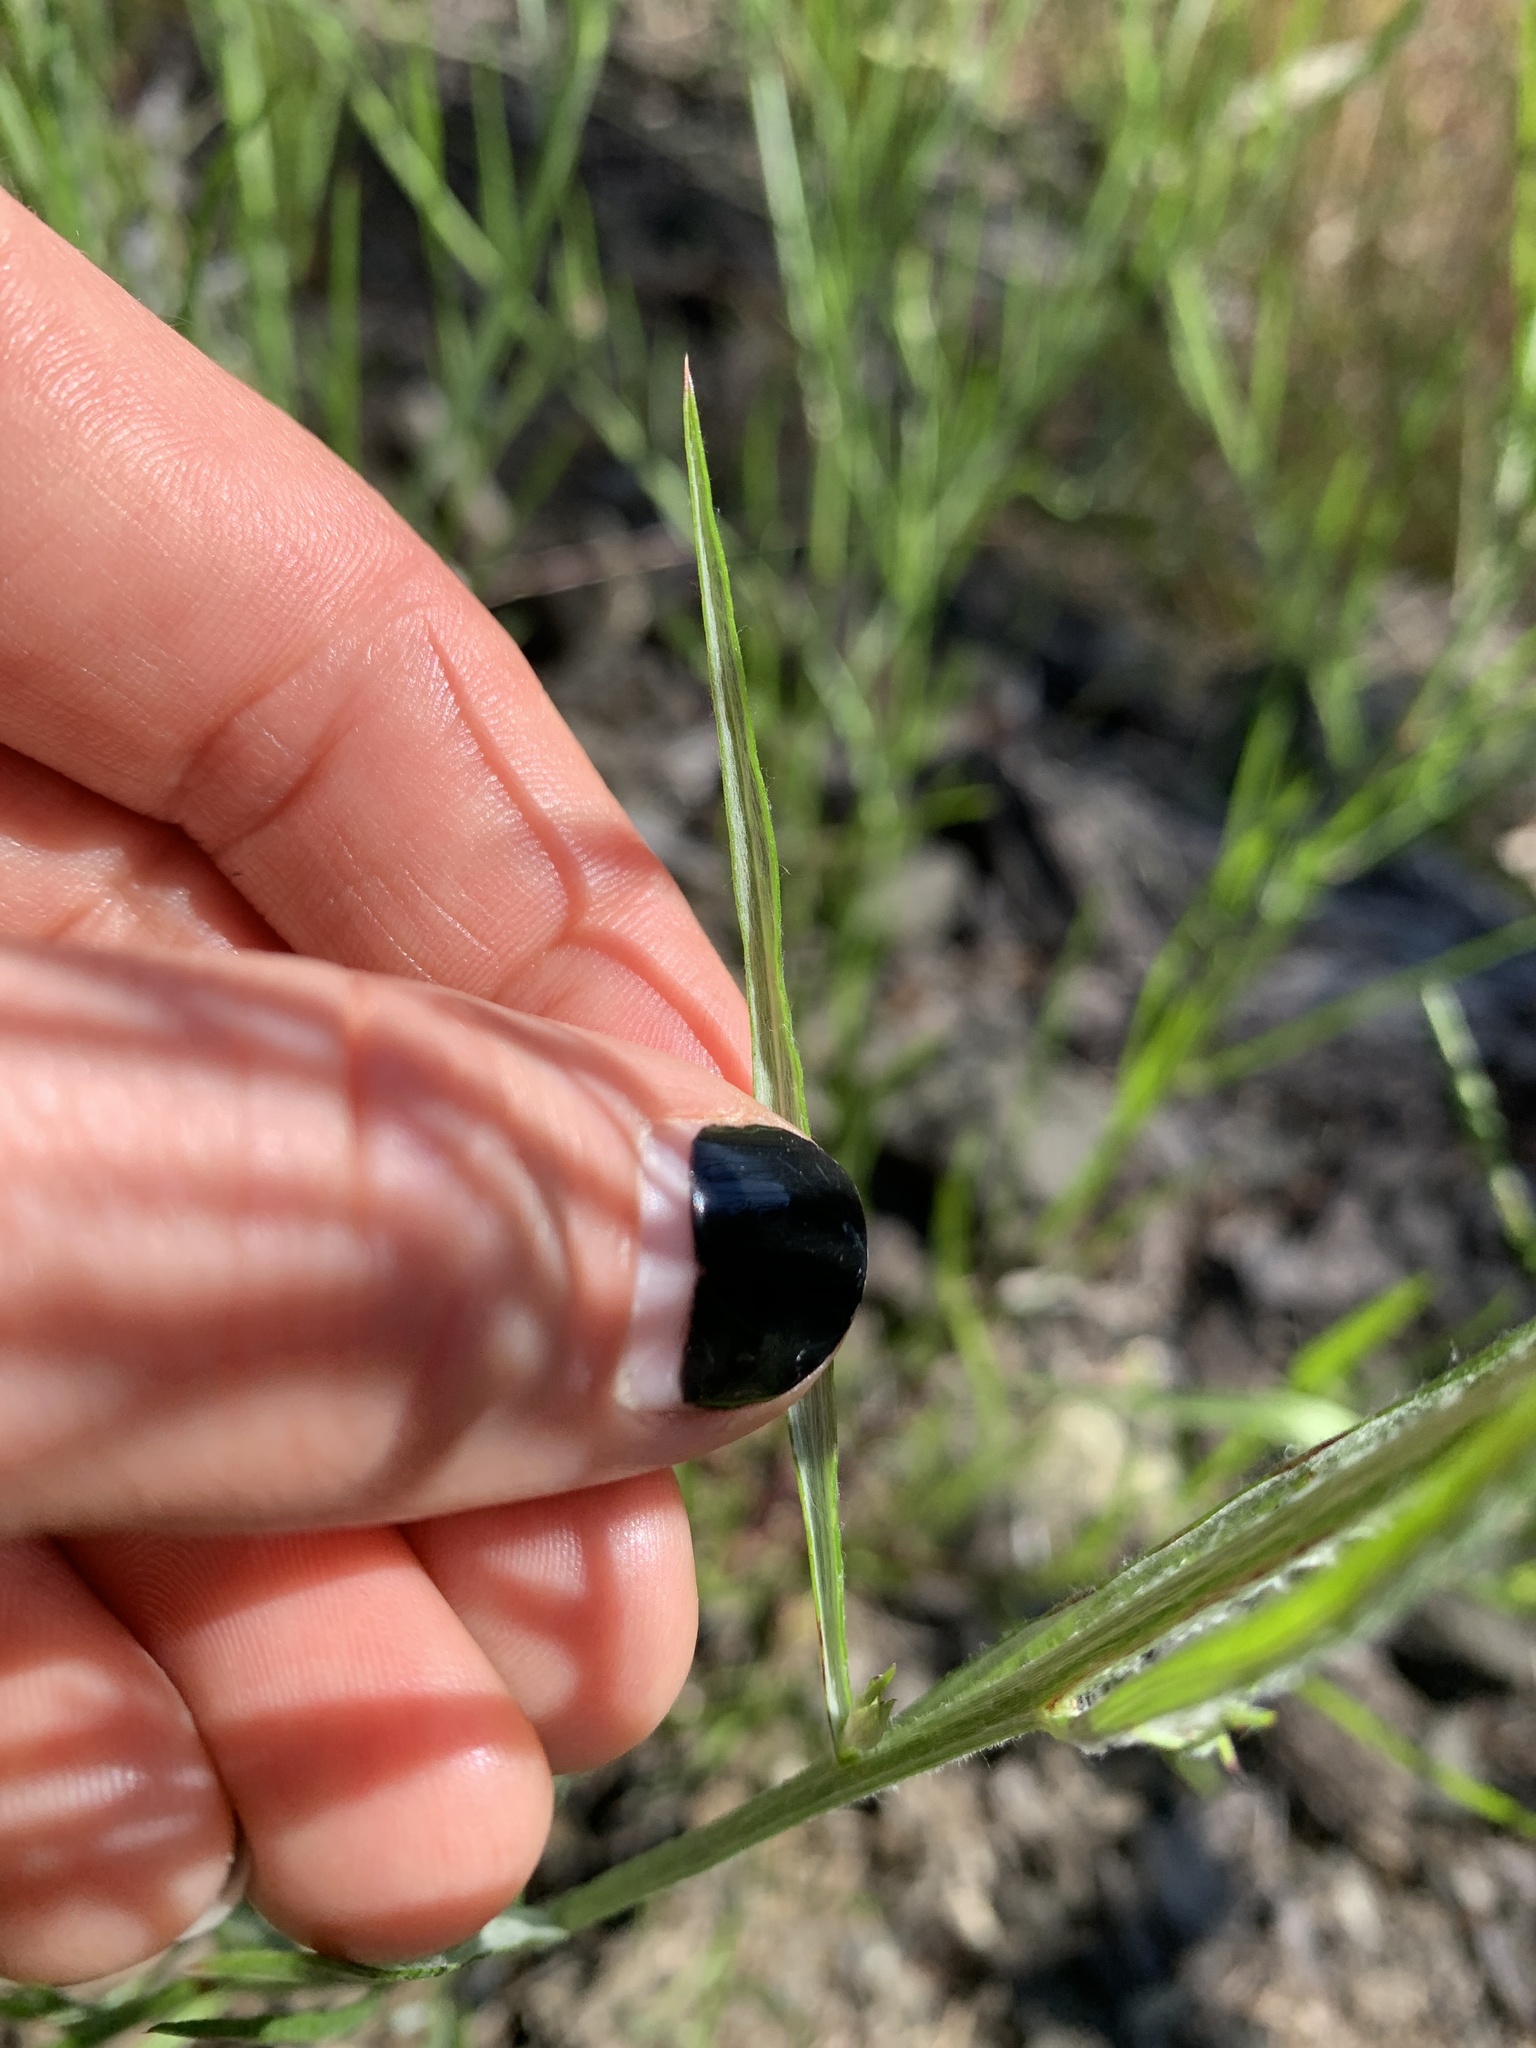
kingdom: Plantae
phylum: Tracheophyta
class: Magnoliopsida
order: Asterales
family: Asteraceae
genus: Centaurea
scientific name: Centaurea cyanus
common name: Cornflower
